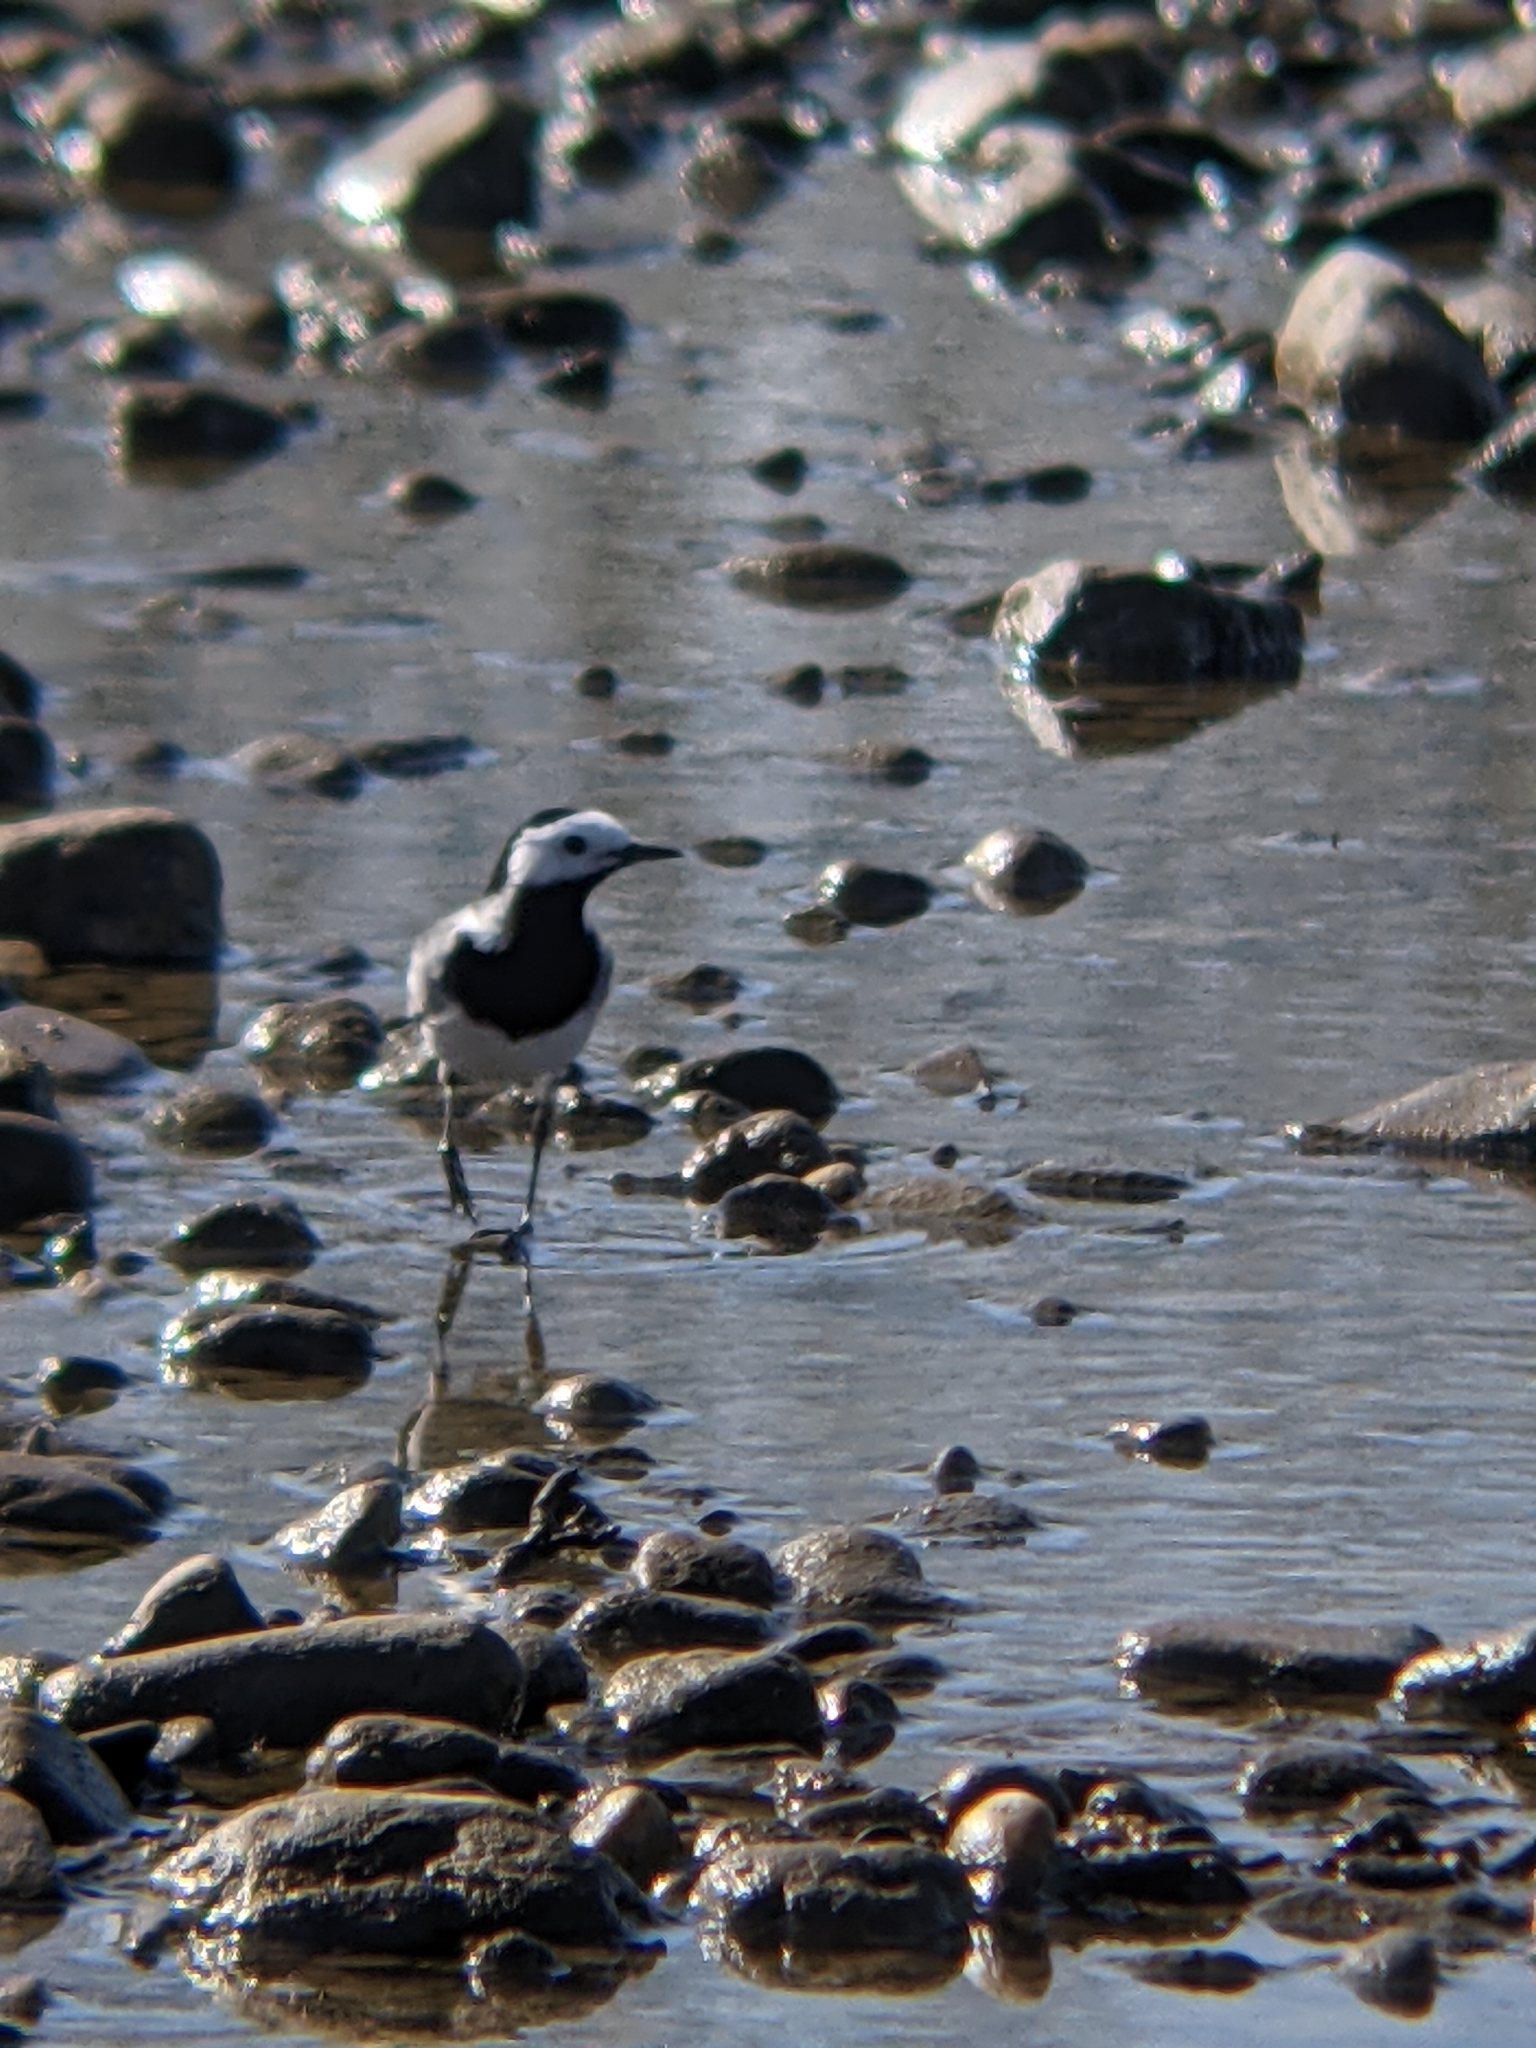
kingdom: Animalia
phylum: Chordata
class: Aves
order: Passeriformes
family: Motacillidae
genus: Motacilla
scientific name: Motacilla alba
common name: White wagtail
